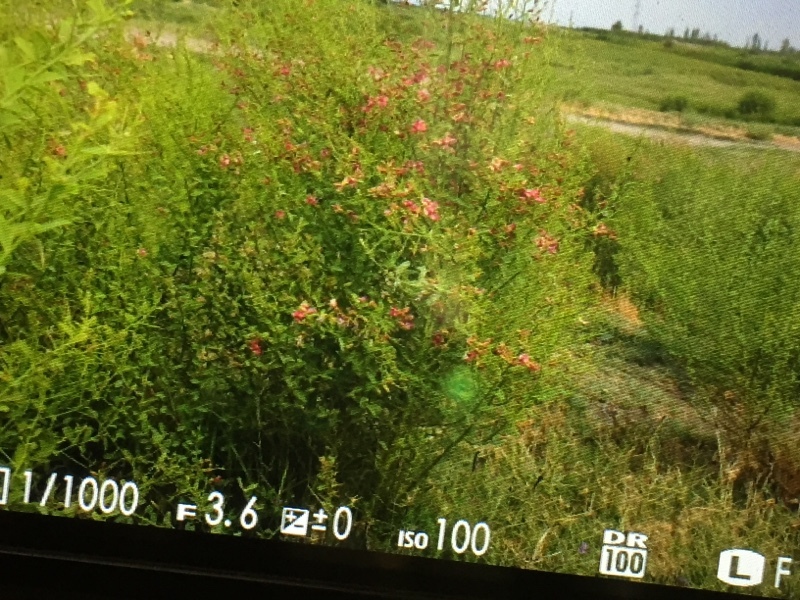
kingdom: Plantae
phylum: Tracheophyta
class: Magnoliopsida
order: Fabales
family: Fabaceae
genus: Alhagi
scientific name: Alhagi pseudalhagi
